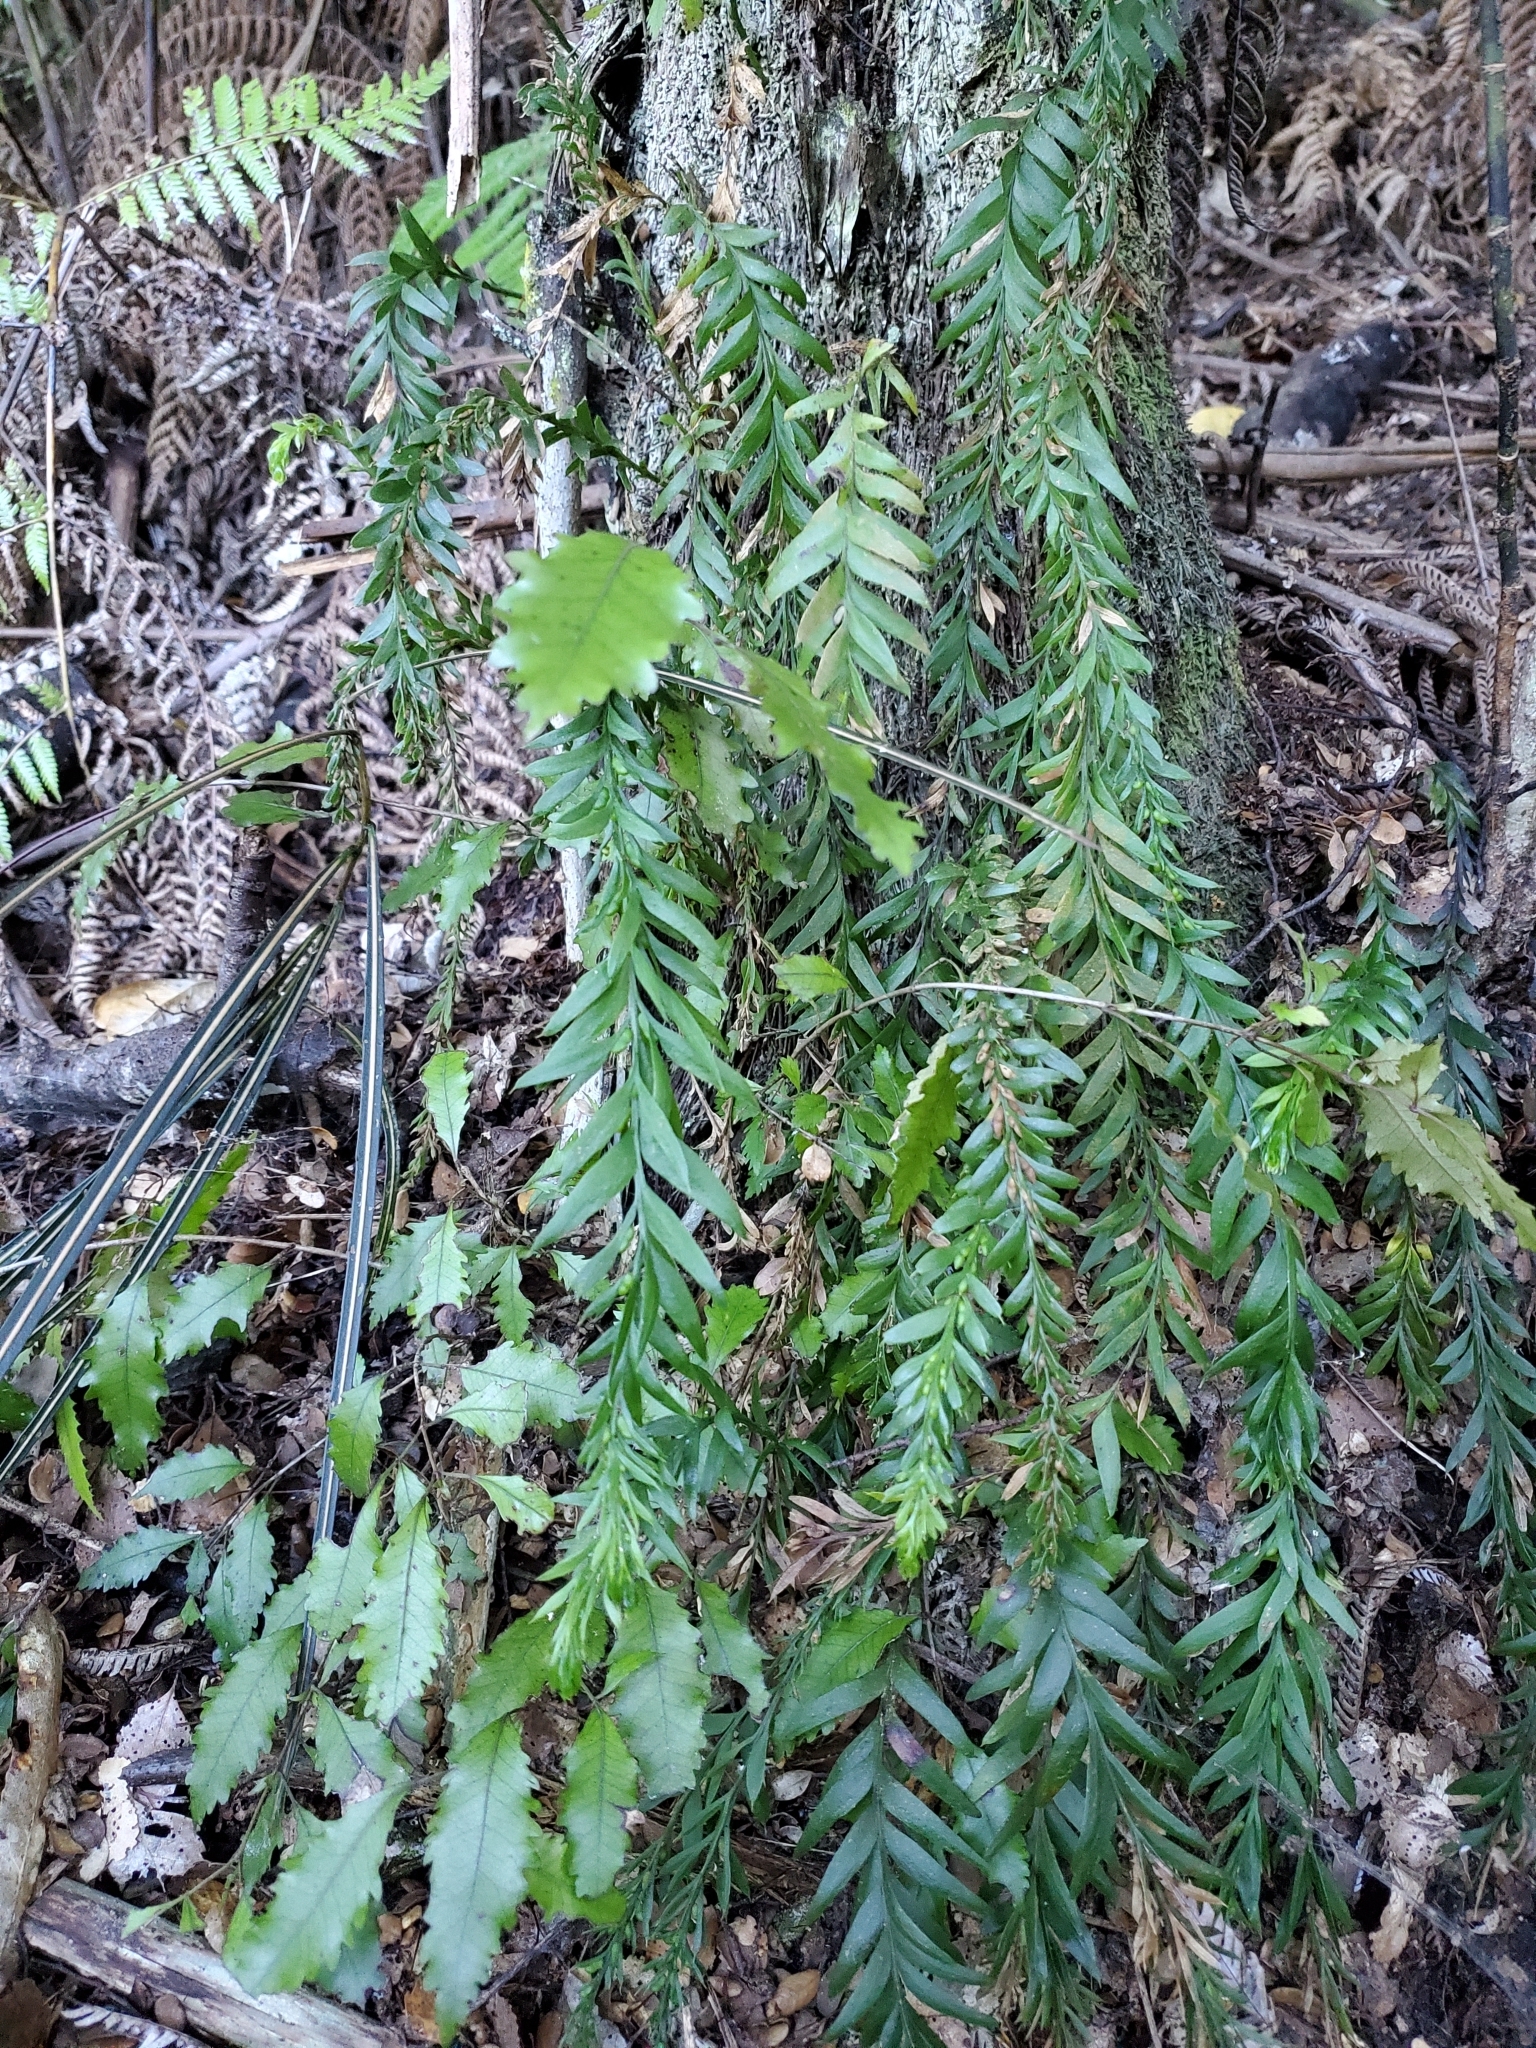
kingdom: Plantae
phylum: Tracheophyta
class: Polypodiopsida
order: Psilotales
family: Psilotaceae
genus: Tmesipteris
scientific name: Tmesipteris tannensis
